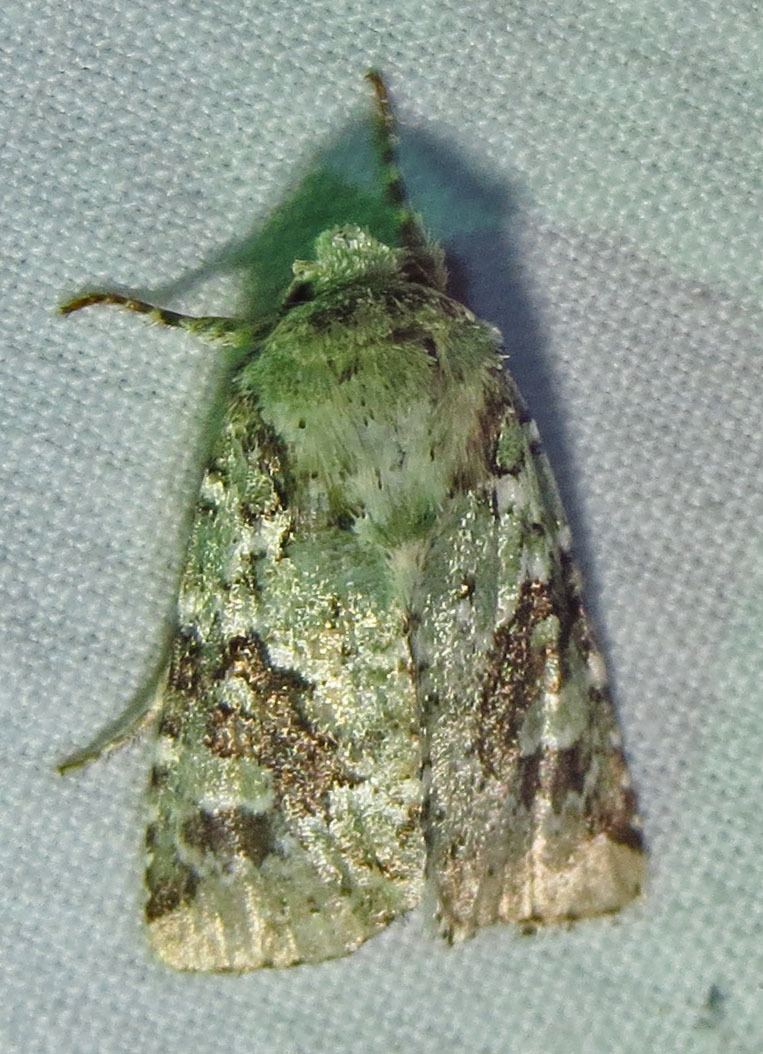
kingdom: Animalia
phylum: Arthropoda
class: Insecta
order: Lepidoptera
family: Noctuidae
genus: Lacinipolia
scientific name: Lacinipolia laudabilis
